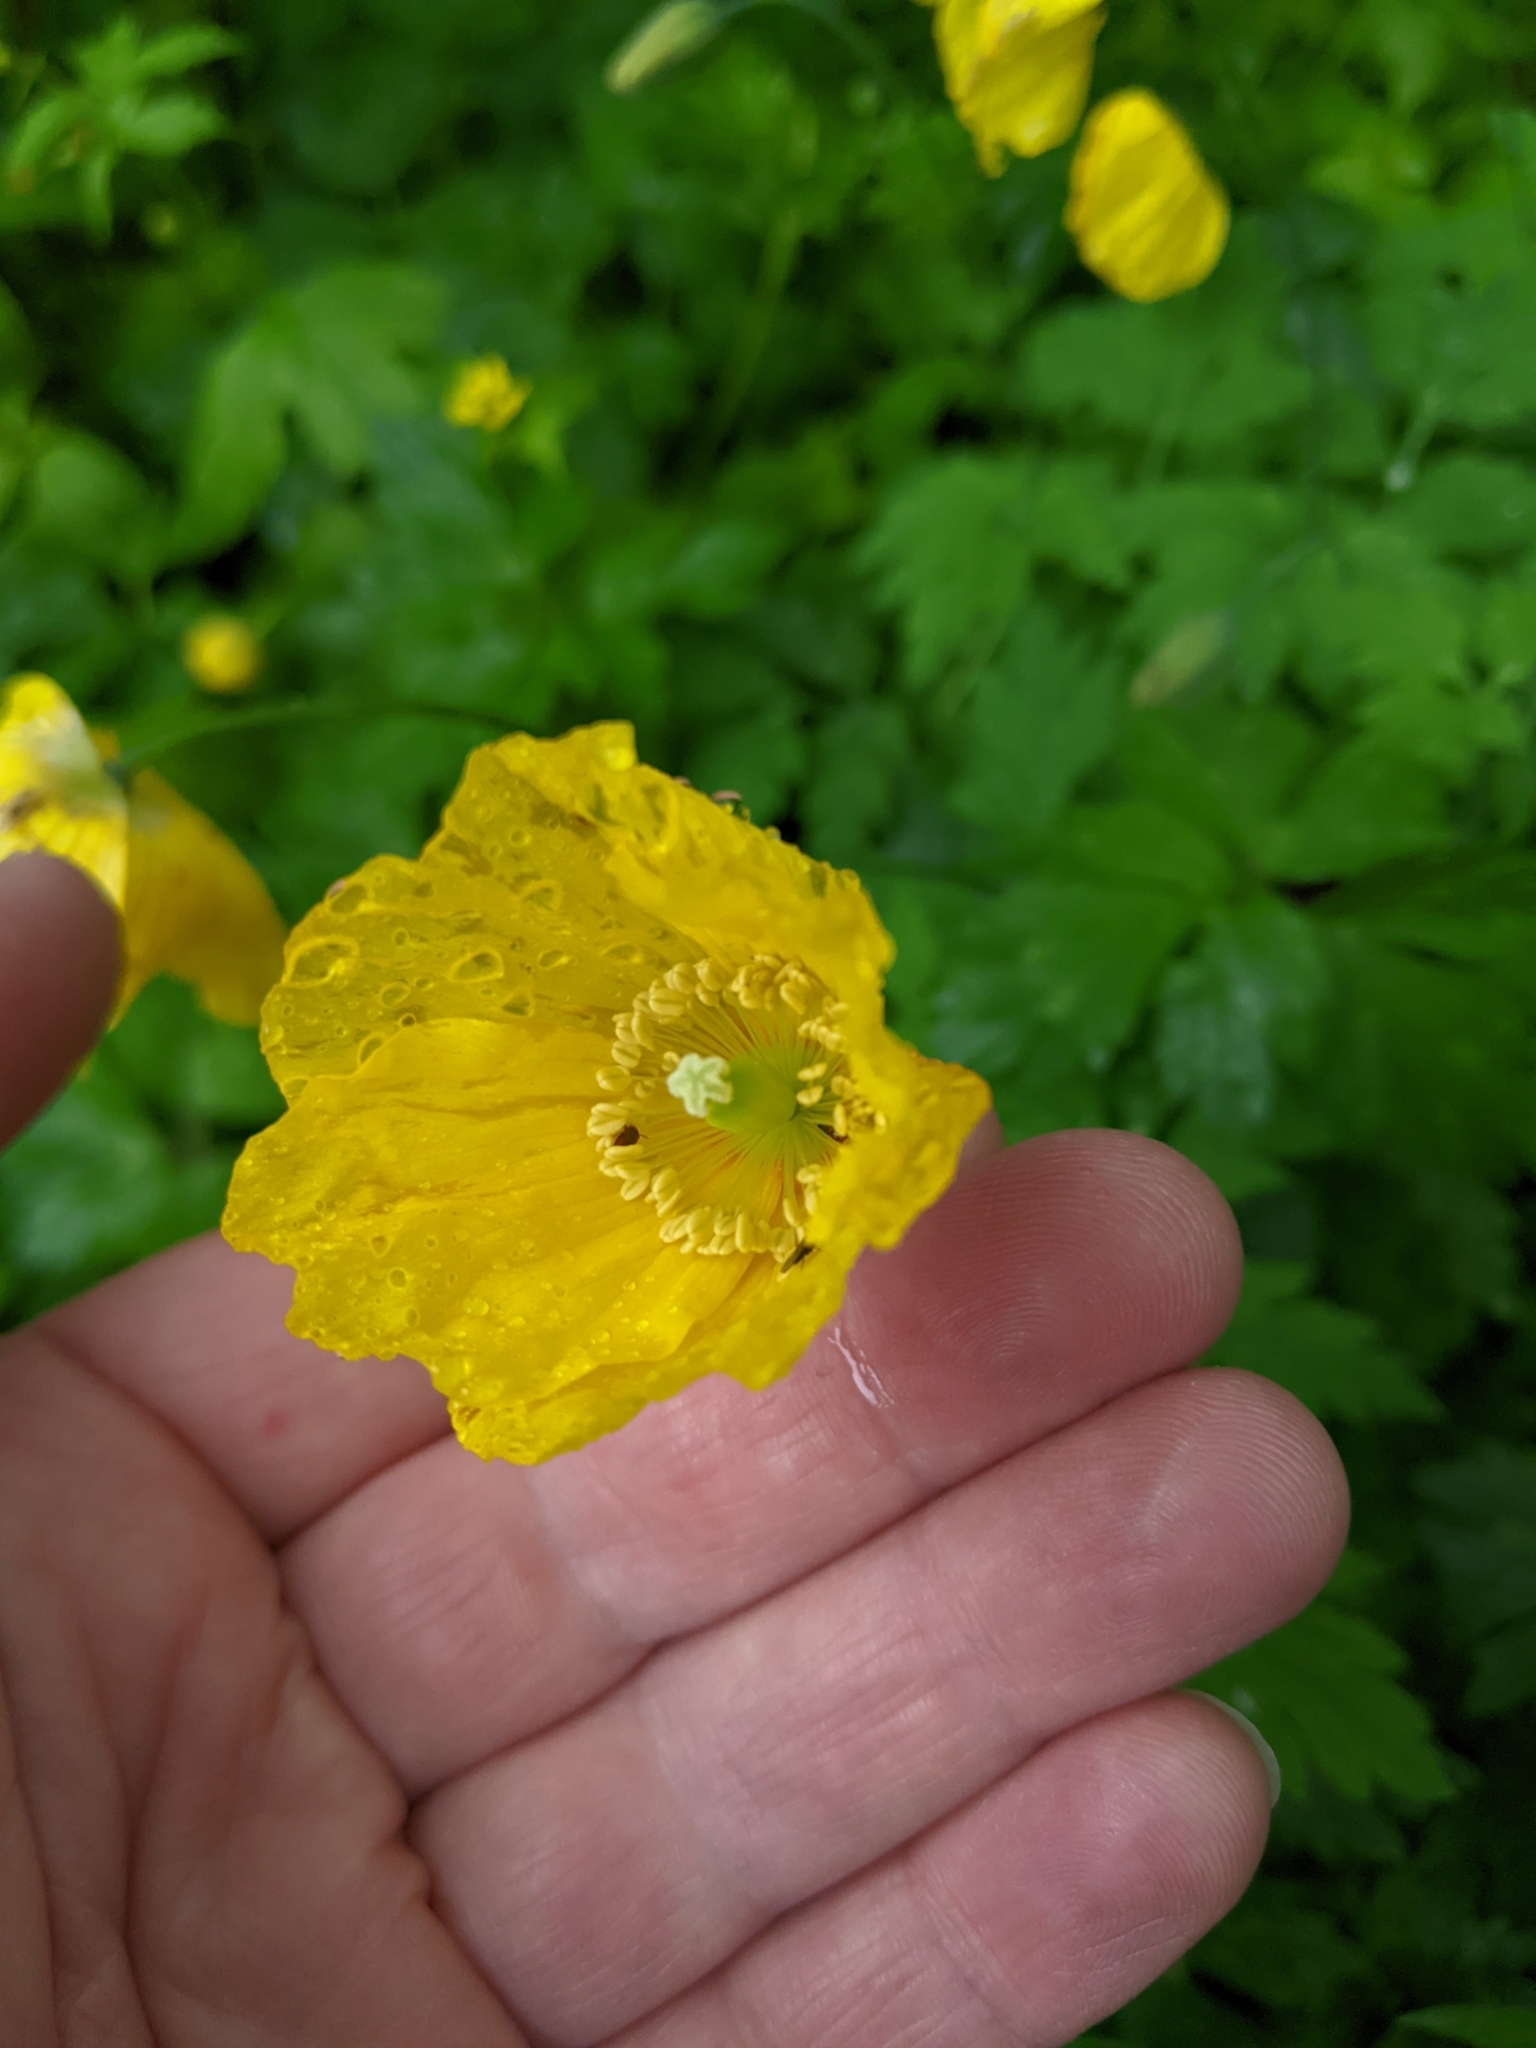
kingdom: Plantae
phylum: Tracheophyta
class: Magnoliopsida
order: Ranunculales
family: Papaveraceae
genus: Papaver
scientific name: Papaver cambricum
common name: Poppy
